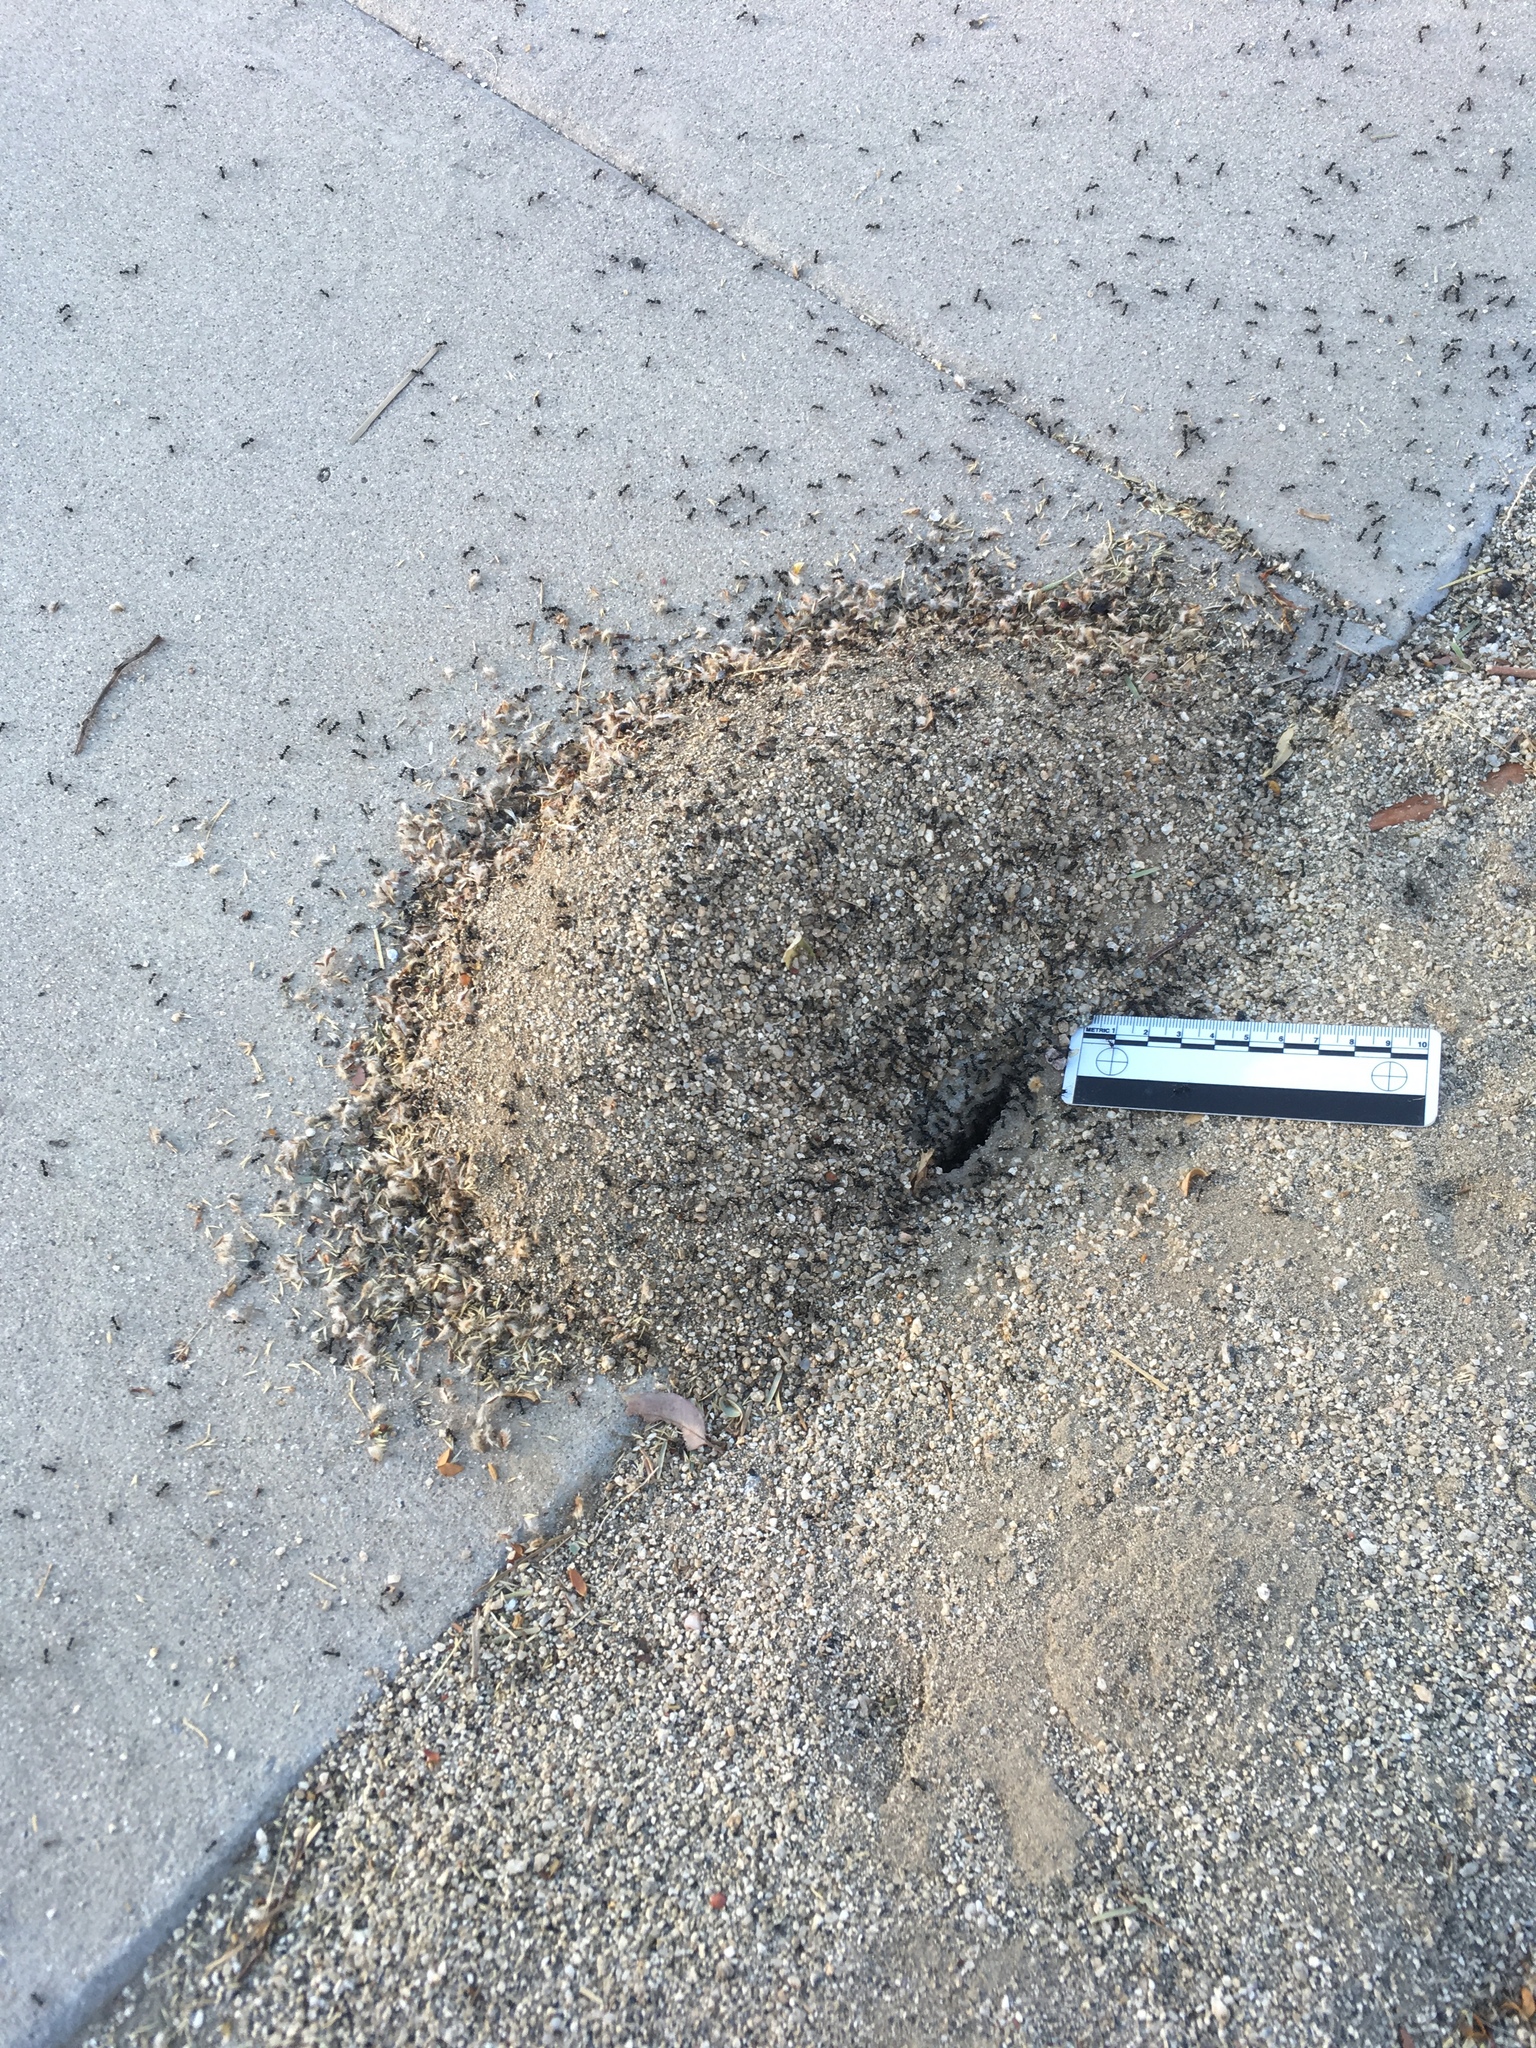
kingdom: Animalia
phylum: Arthropoda
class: Insecta
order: Hymenoptera
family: Formicidae
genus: Messor
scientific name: Messor pergandei
